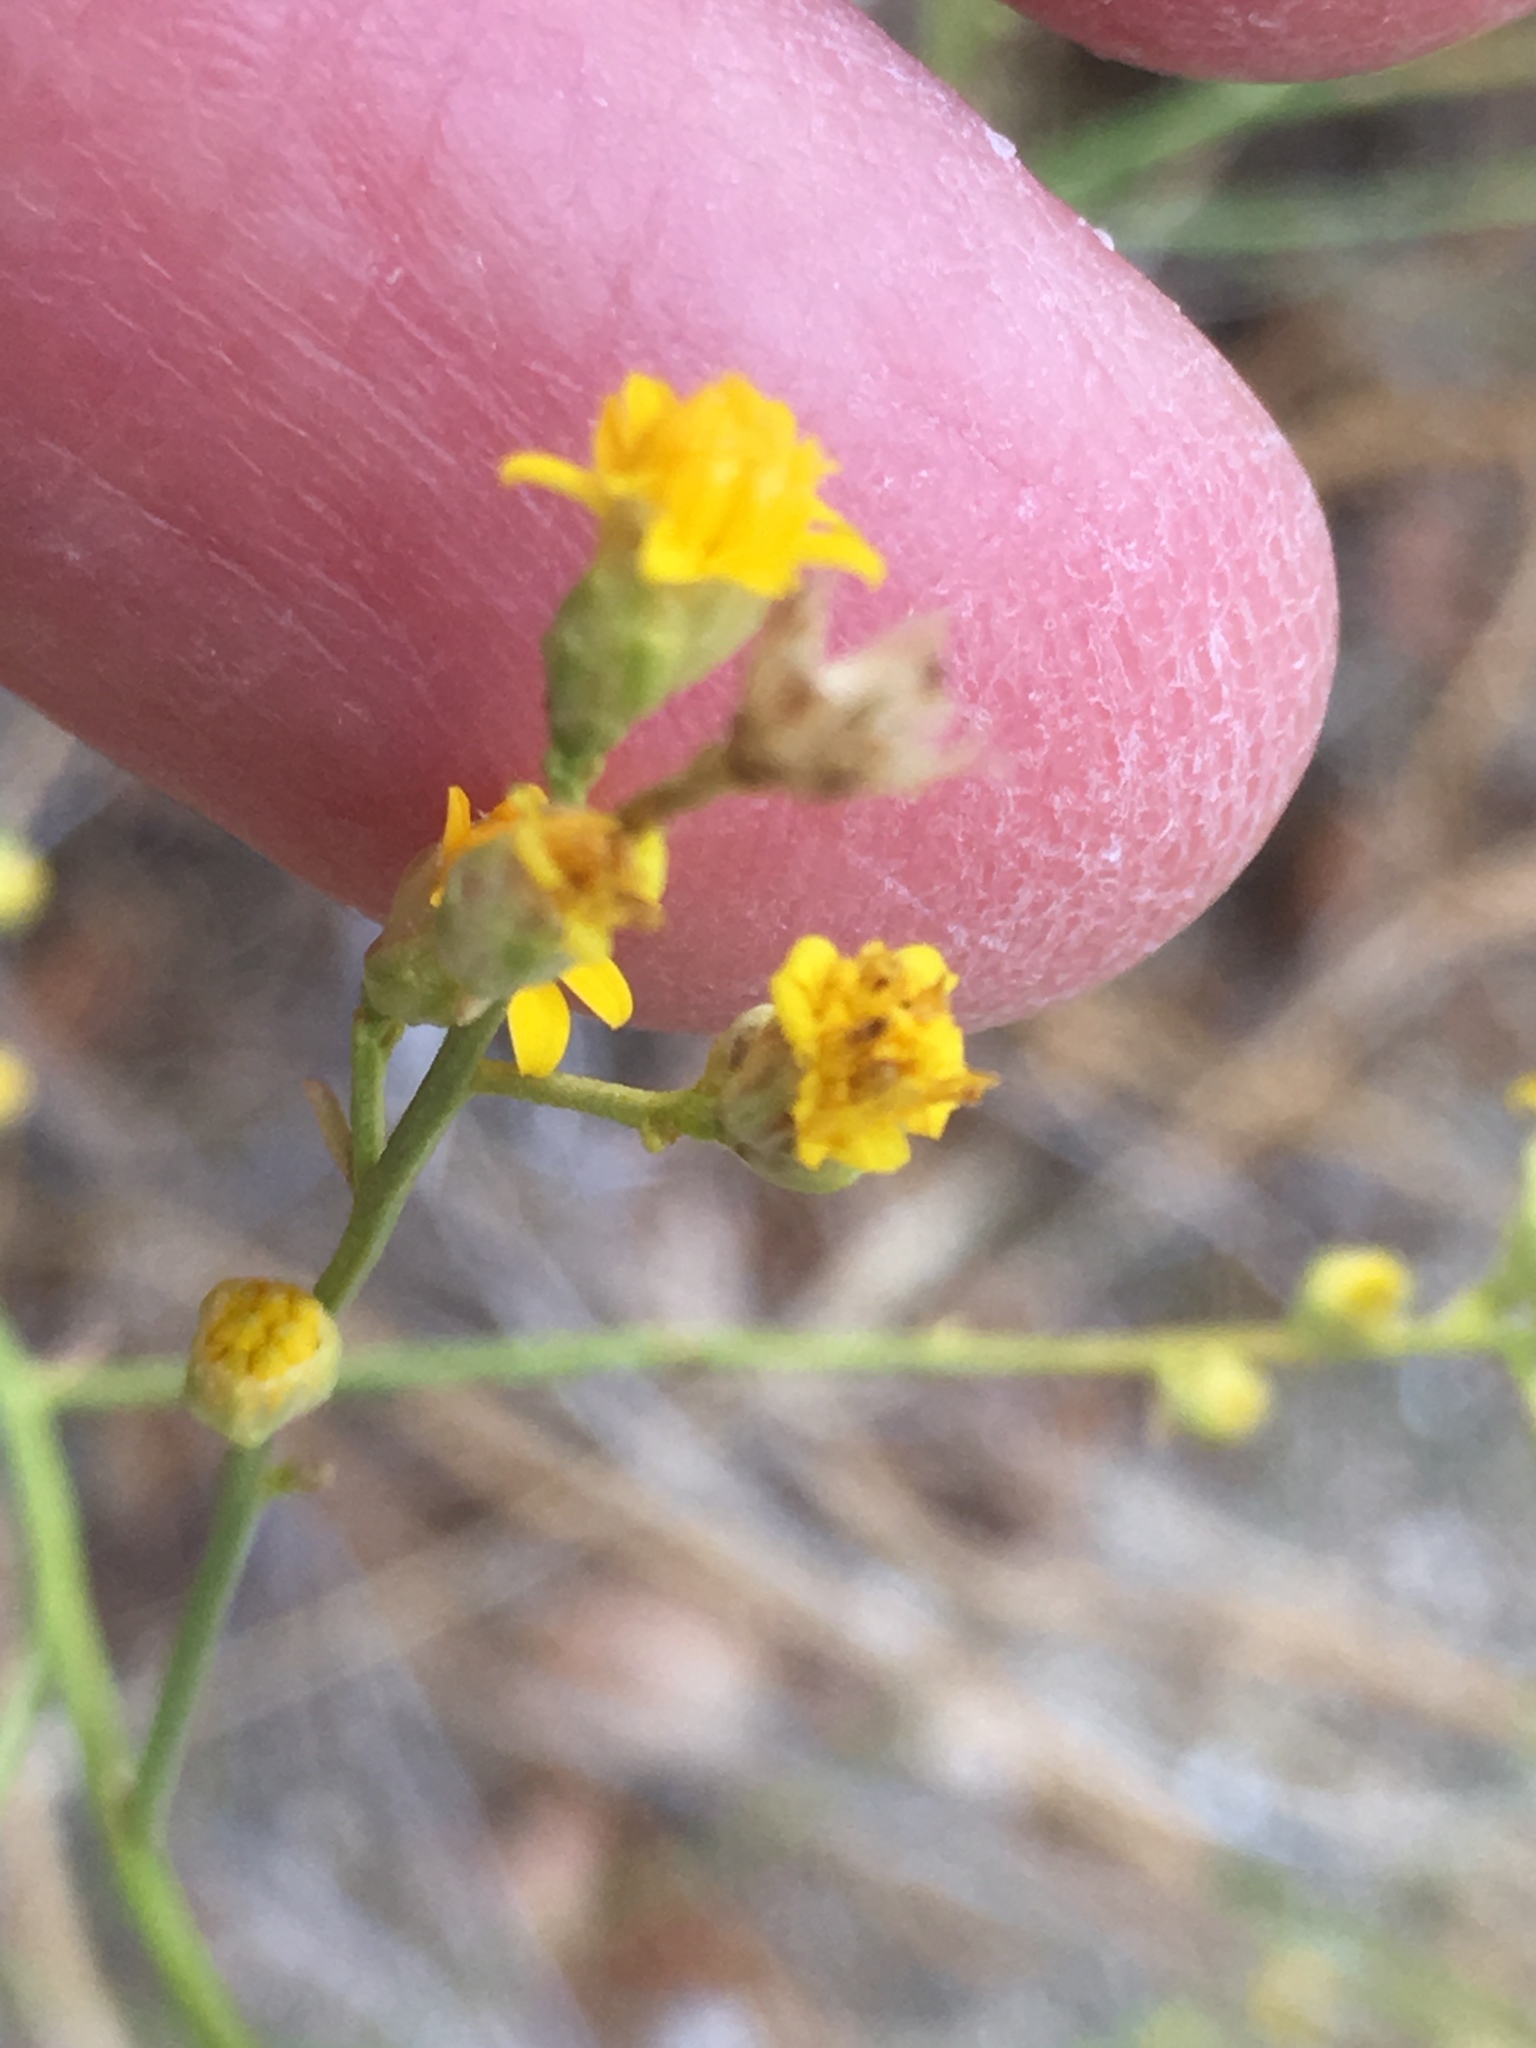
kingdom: Plantae
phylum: Tracheophyta
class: Magnoliopsida
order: Asterales
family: Asteraceae
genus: Gutierrezia
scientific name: Gutierrezia sarothrae
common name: Broom snakeweed
